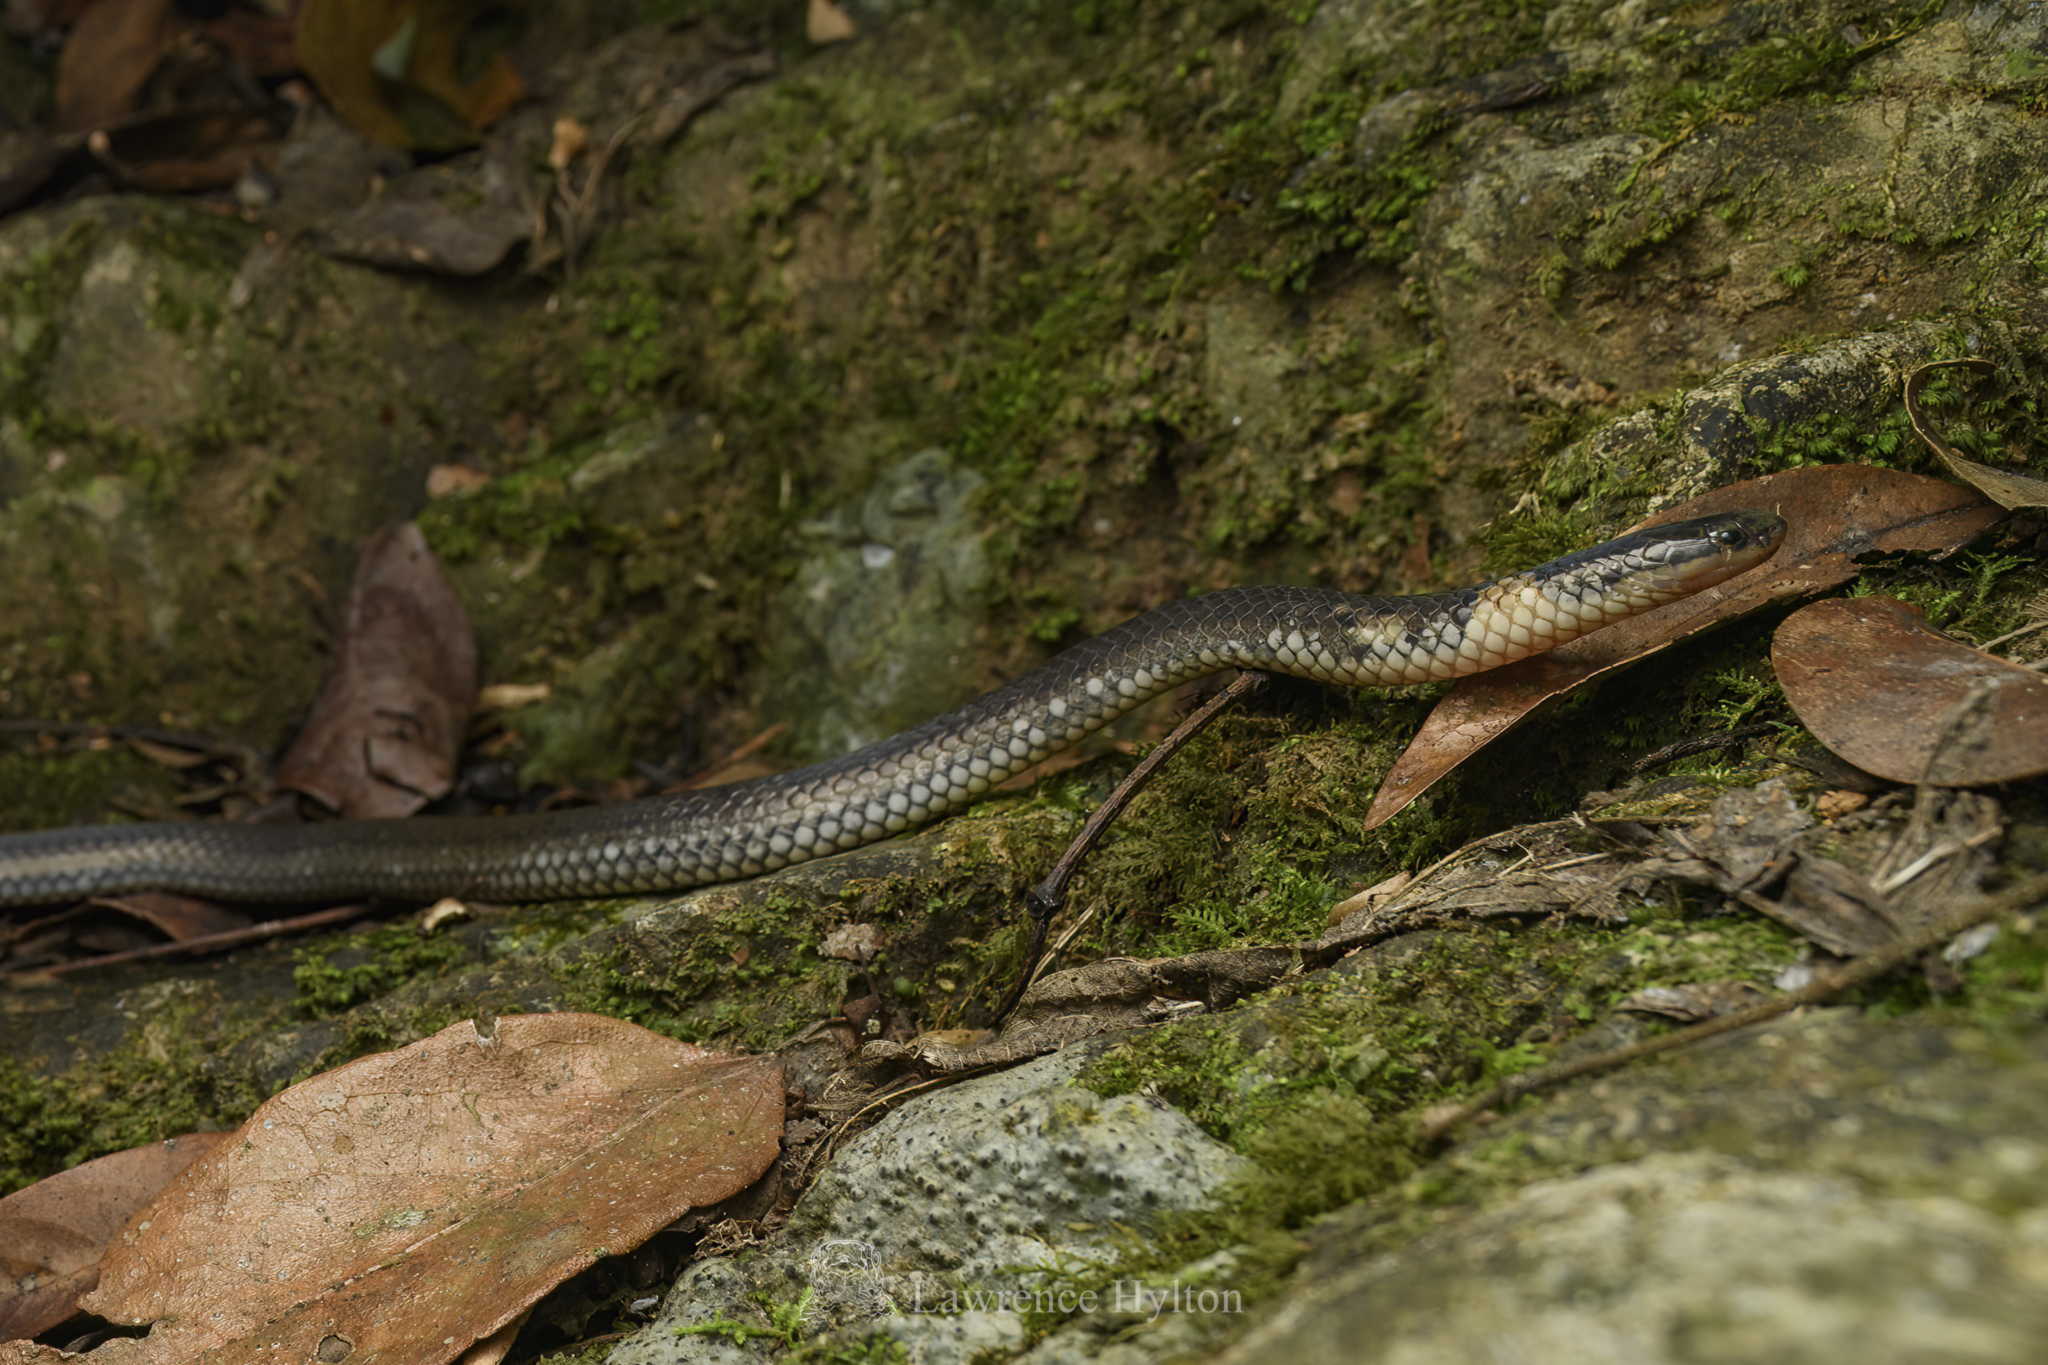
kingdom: Animalia
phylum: Chordata
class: Squamata
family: Colubridae
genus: Calamaria
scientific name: Calamaria septentrionalis
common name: Hong kong dwarf snake
